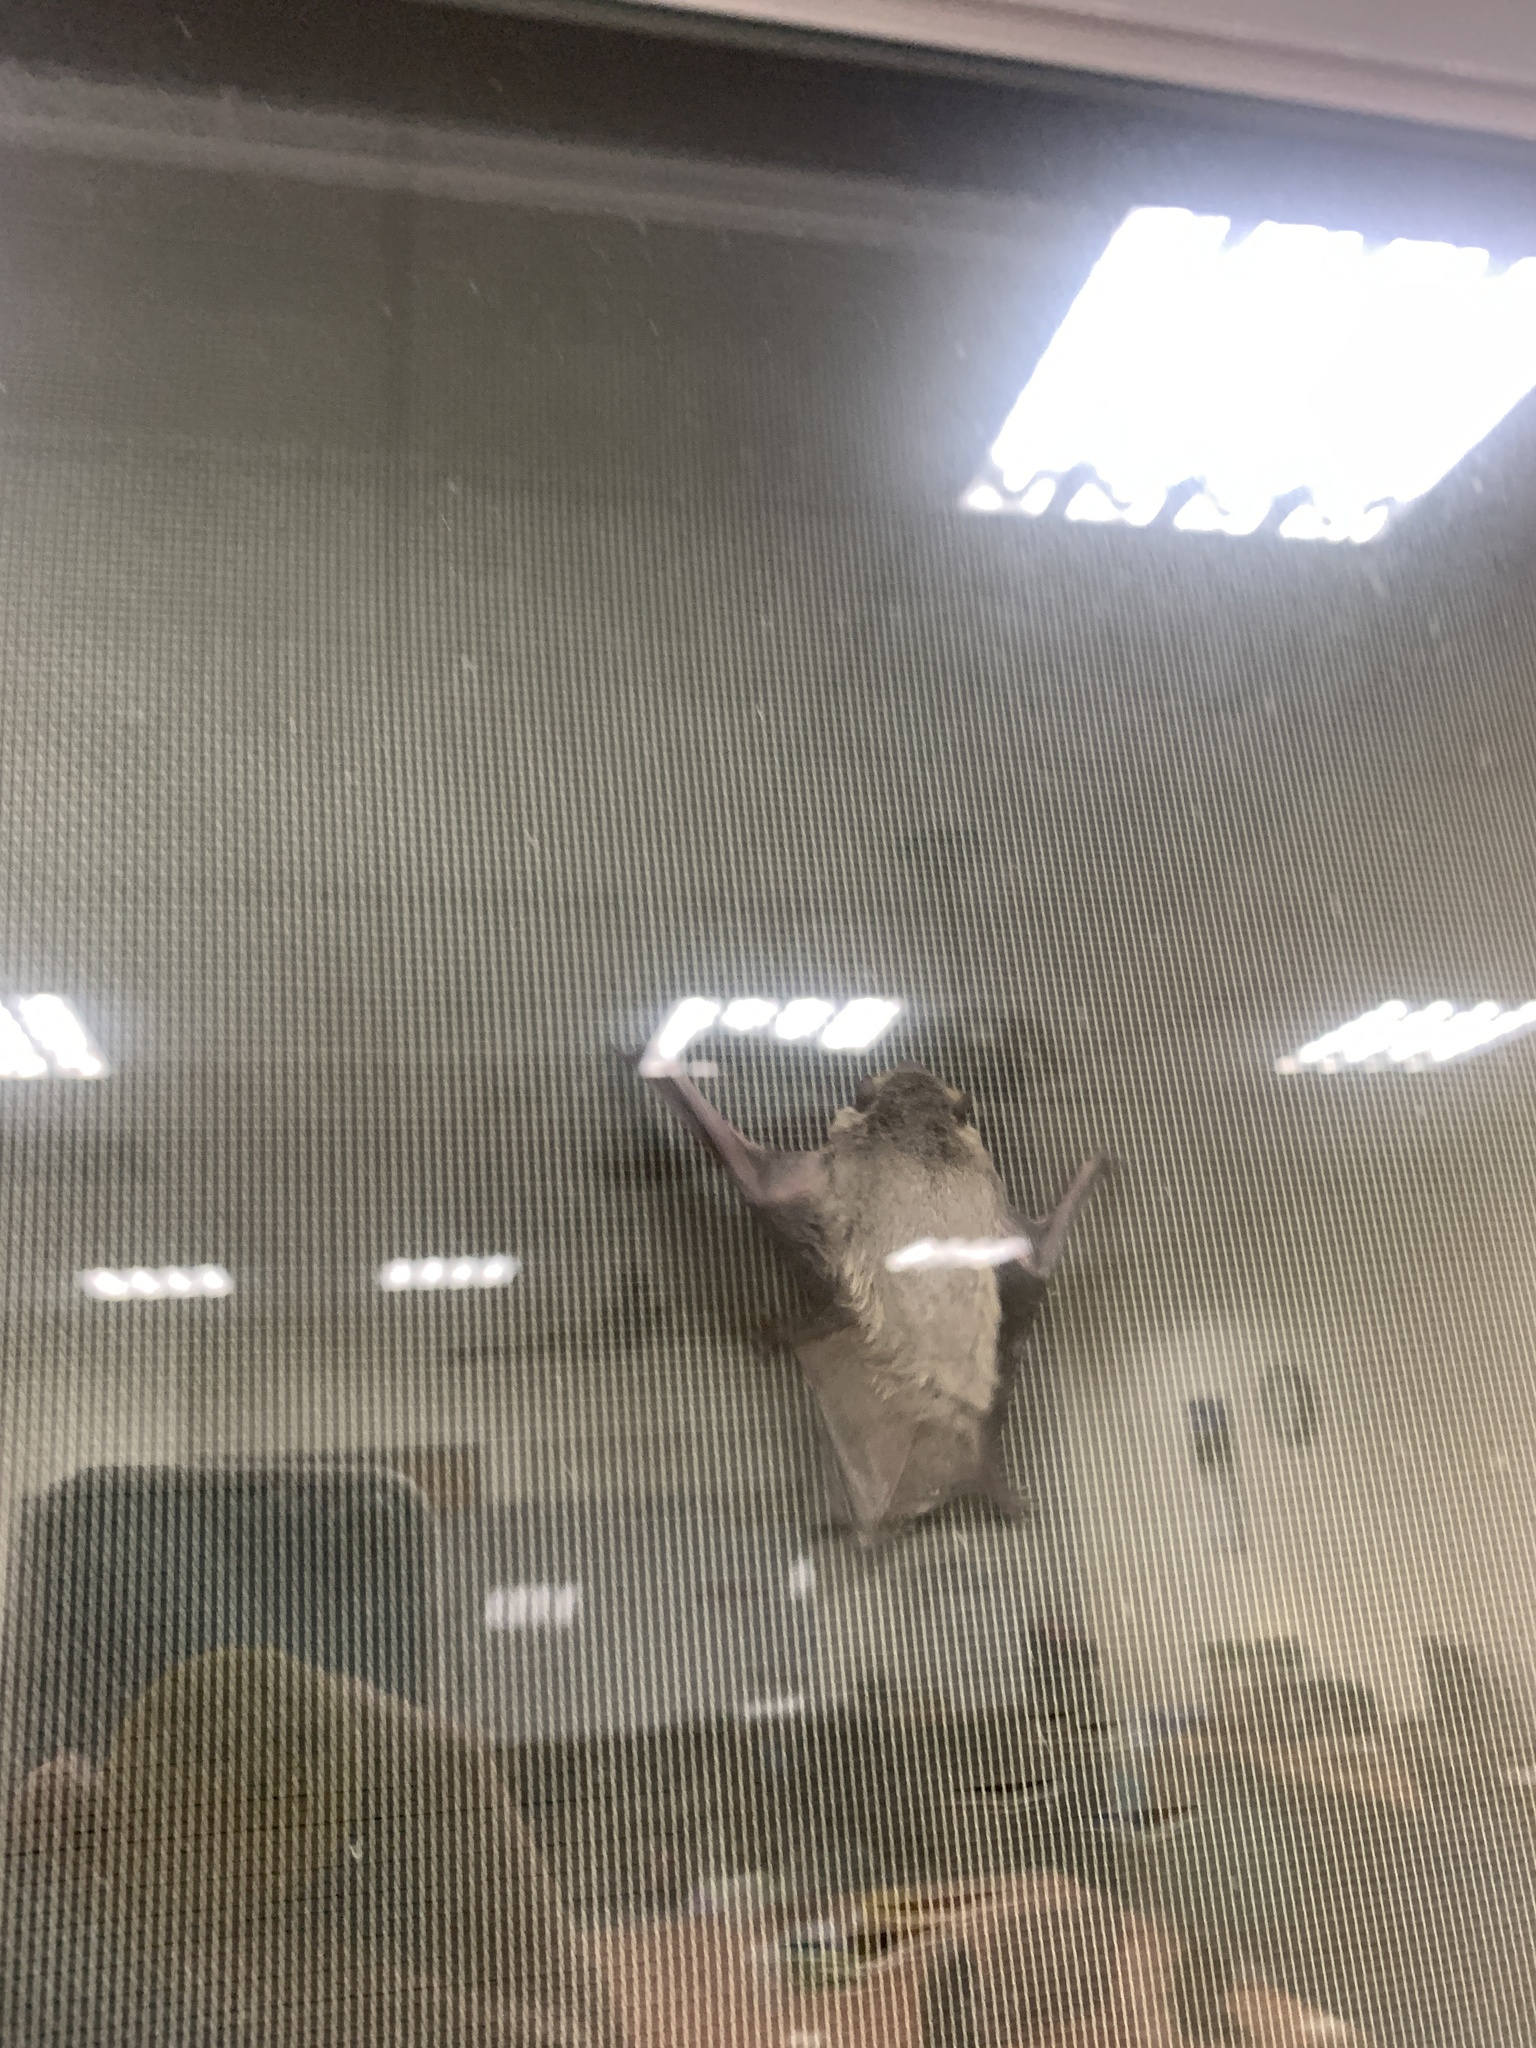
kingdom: Animalia
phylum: Chordata
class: Mammalia
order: Chiroptera
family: Vespertilionidae
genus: Pipistrellus
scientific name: Pipistrellus abramus
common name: Japanese pipistrelle
